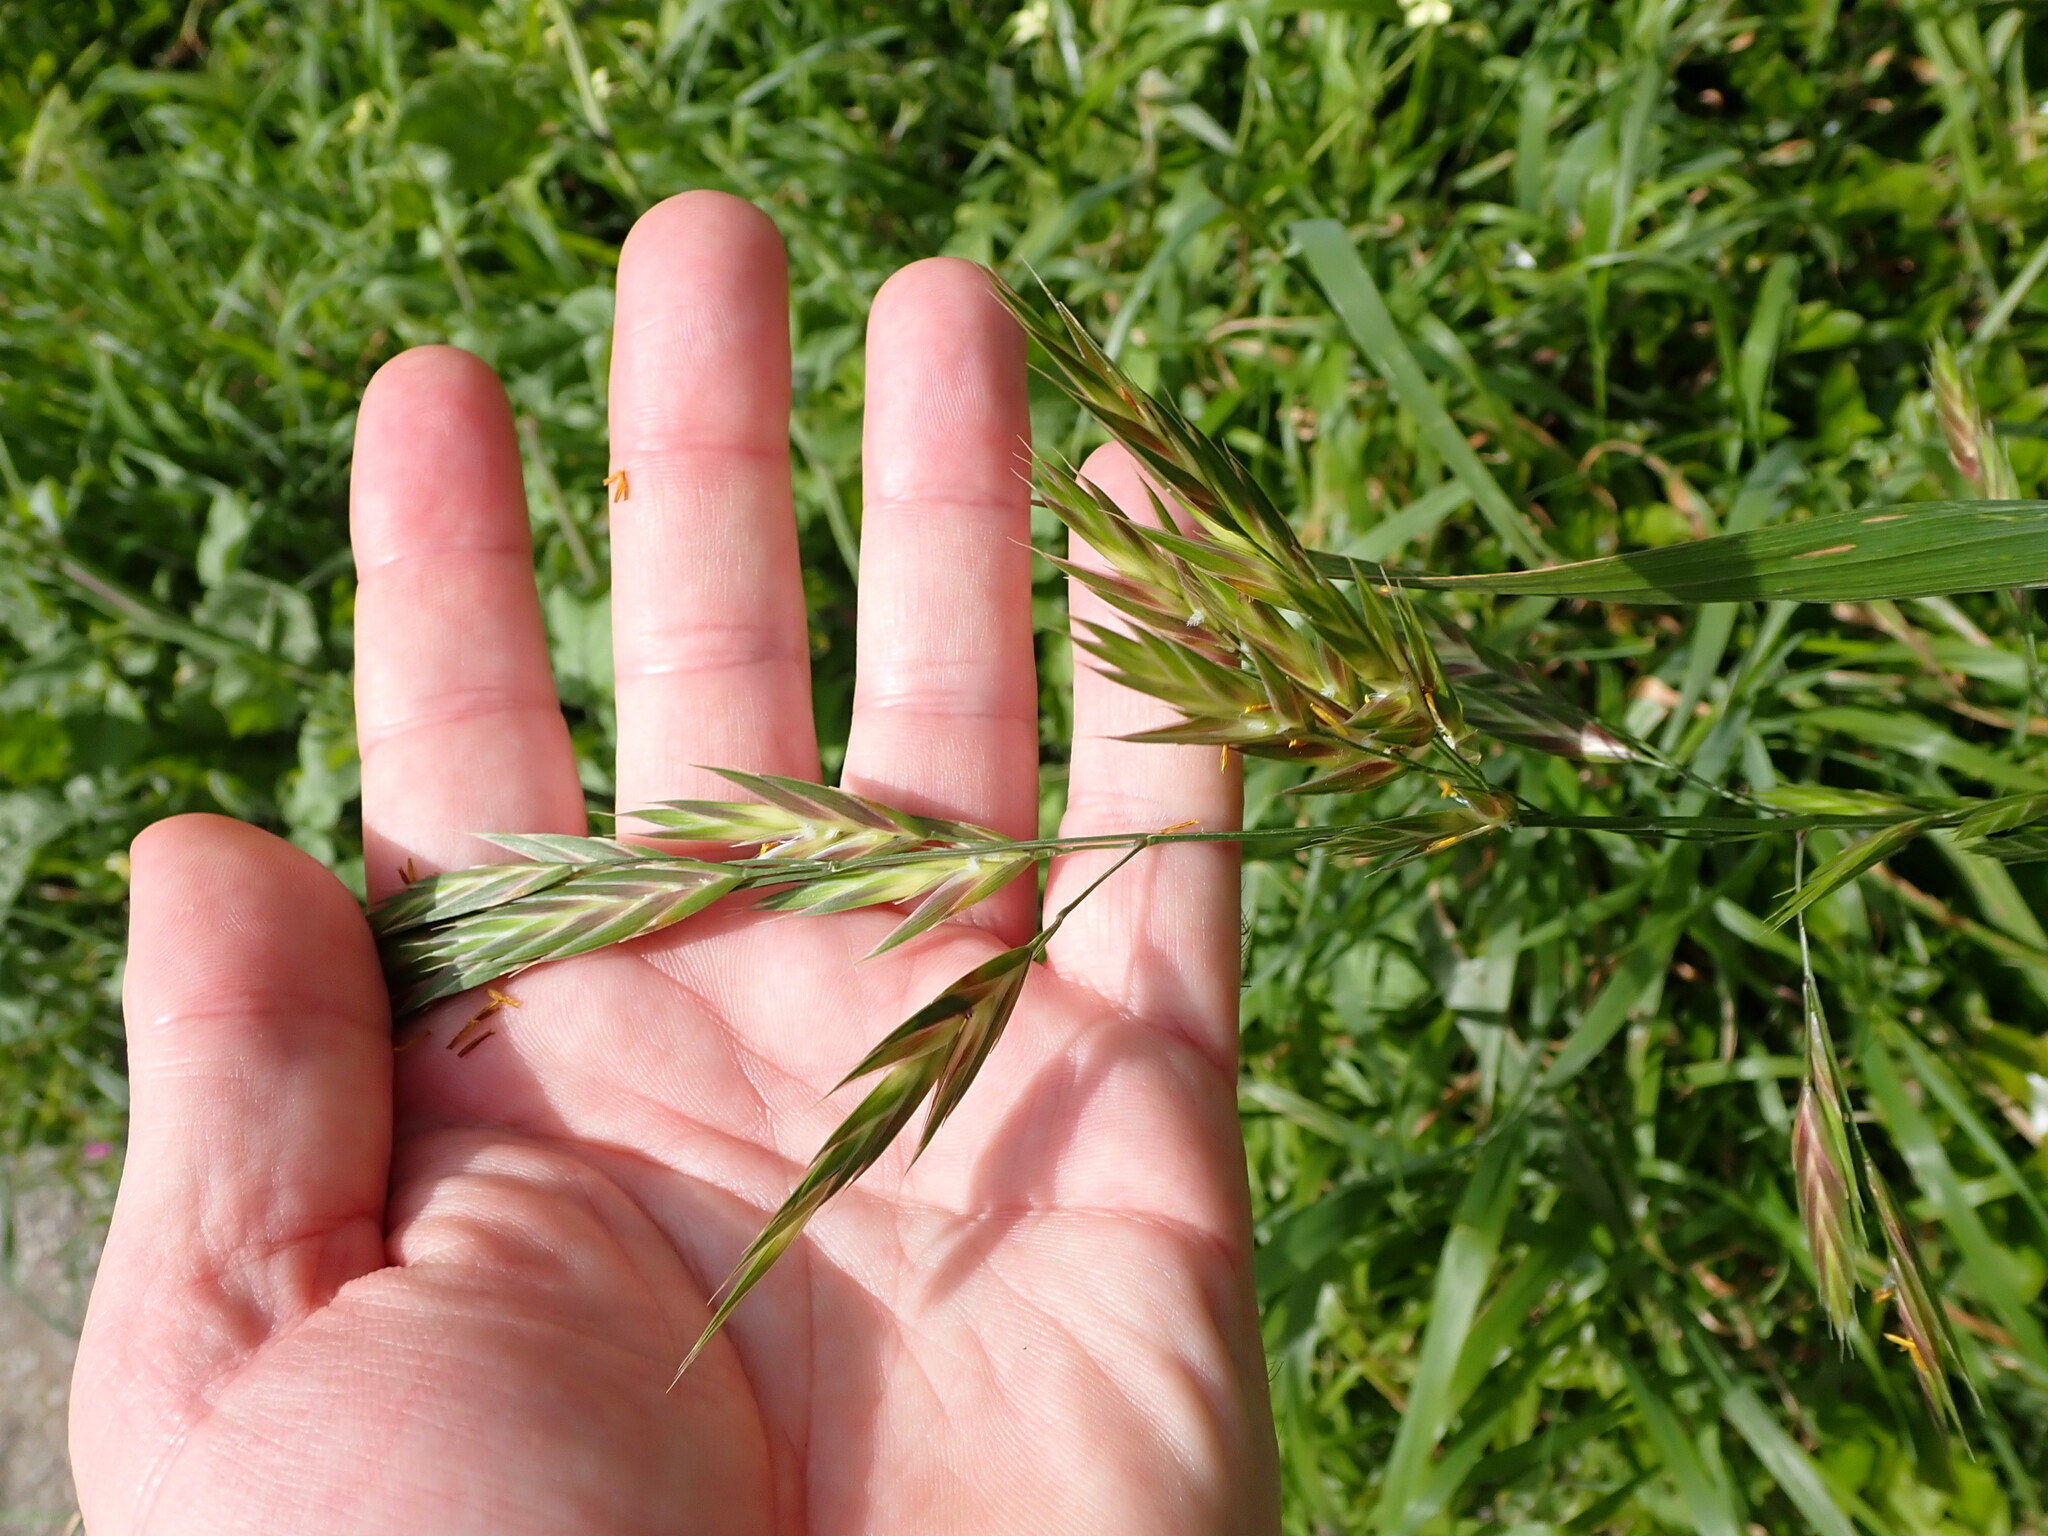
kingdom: Plantae
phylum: Tracheophyta
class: Liliopsida
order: Poales
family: Poaceae
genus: Bromus
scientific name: Bromus catharticus
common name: Rescuegrass
